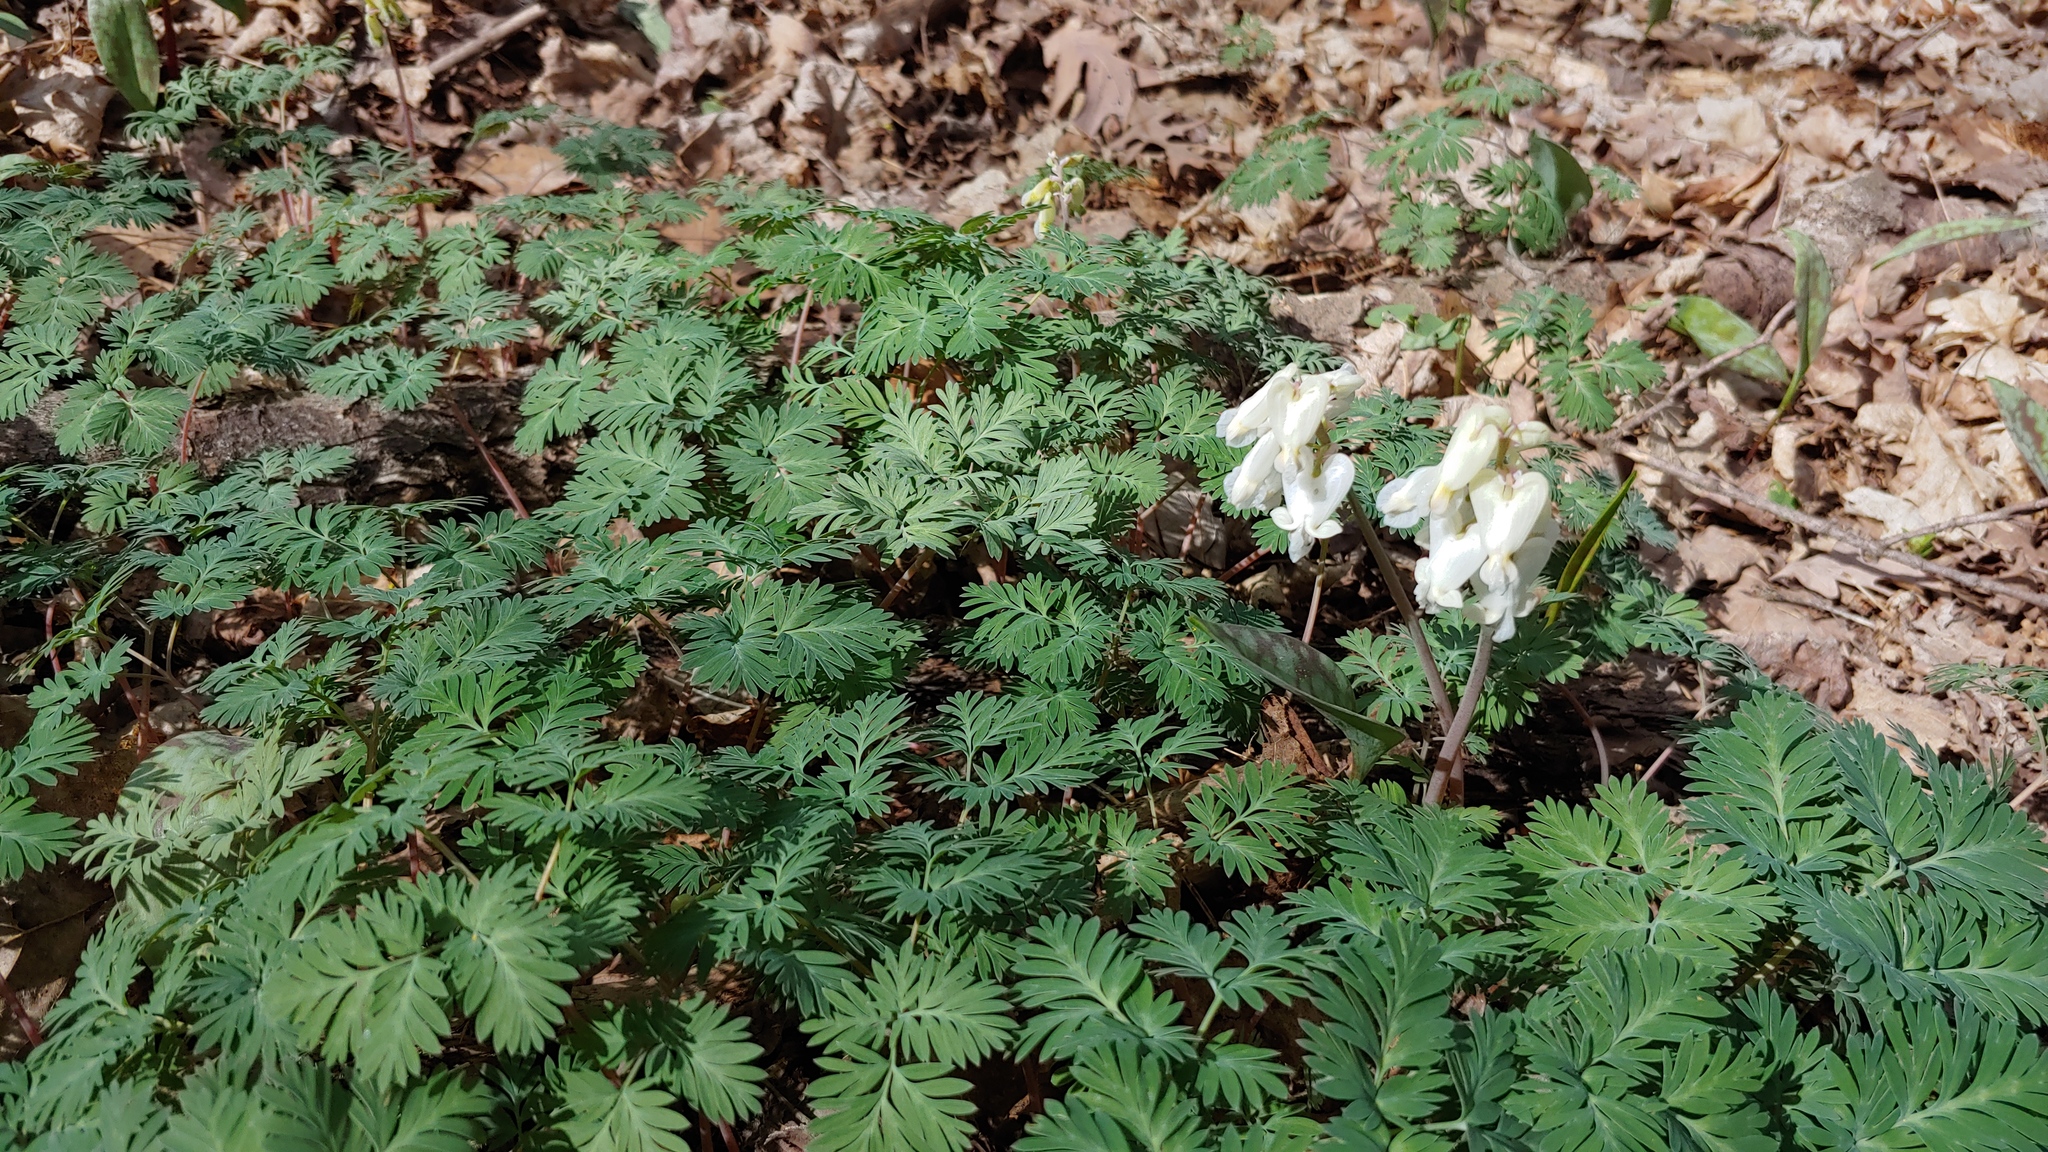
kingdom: Plantae
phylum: Tracheophyta
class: Magnoliopsida
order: Ranunculales
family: Papaveraceae
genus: Dicentra
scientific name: Dicentra canadensis
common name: Squirrel-corn
